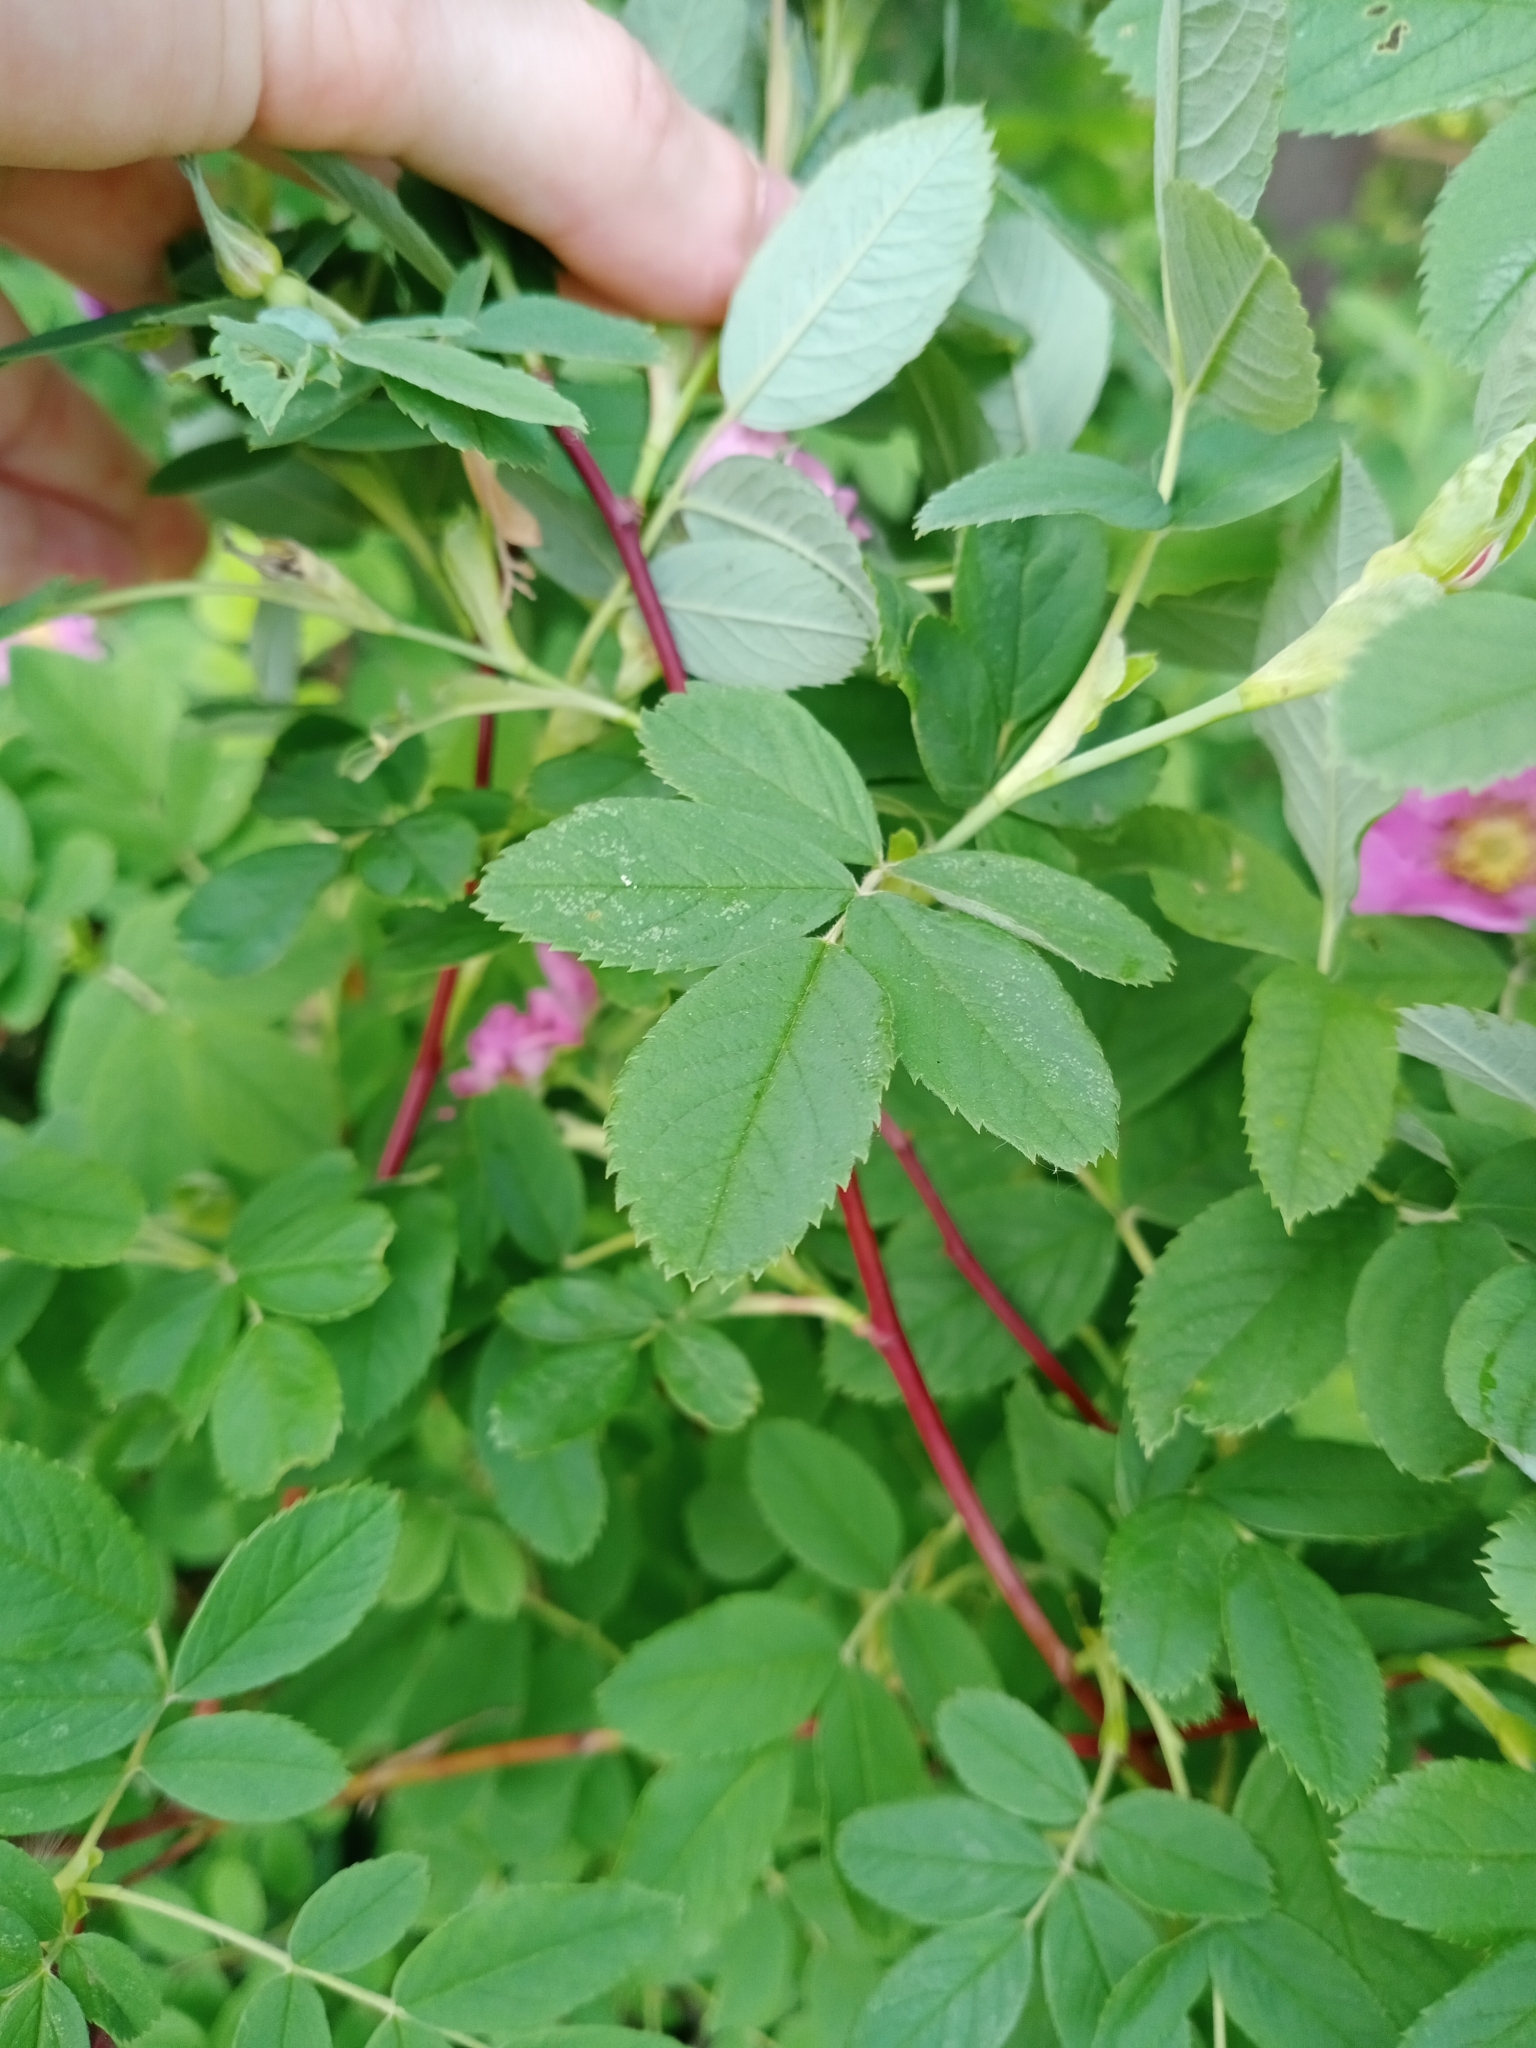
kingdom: Plantae
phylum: Tracheophyta
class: Magnoliopsida
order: Rosales
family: Rosaceae
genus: Rosa
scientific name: Rosa majalis
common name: Cinnamon rose
